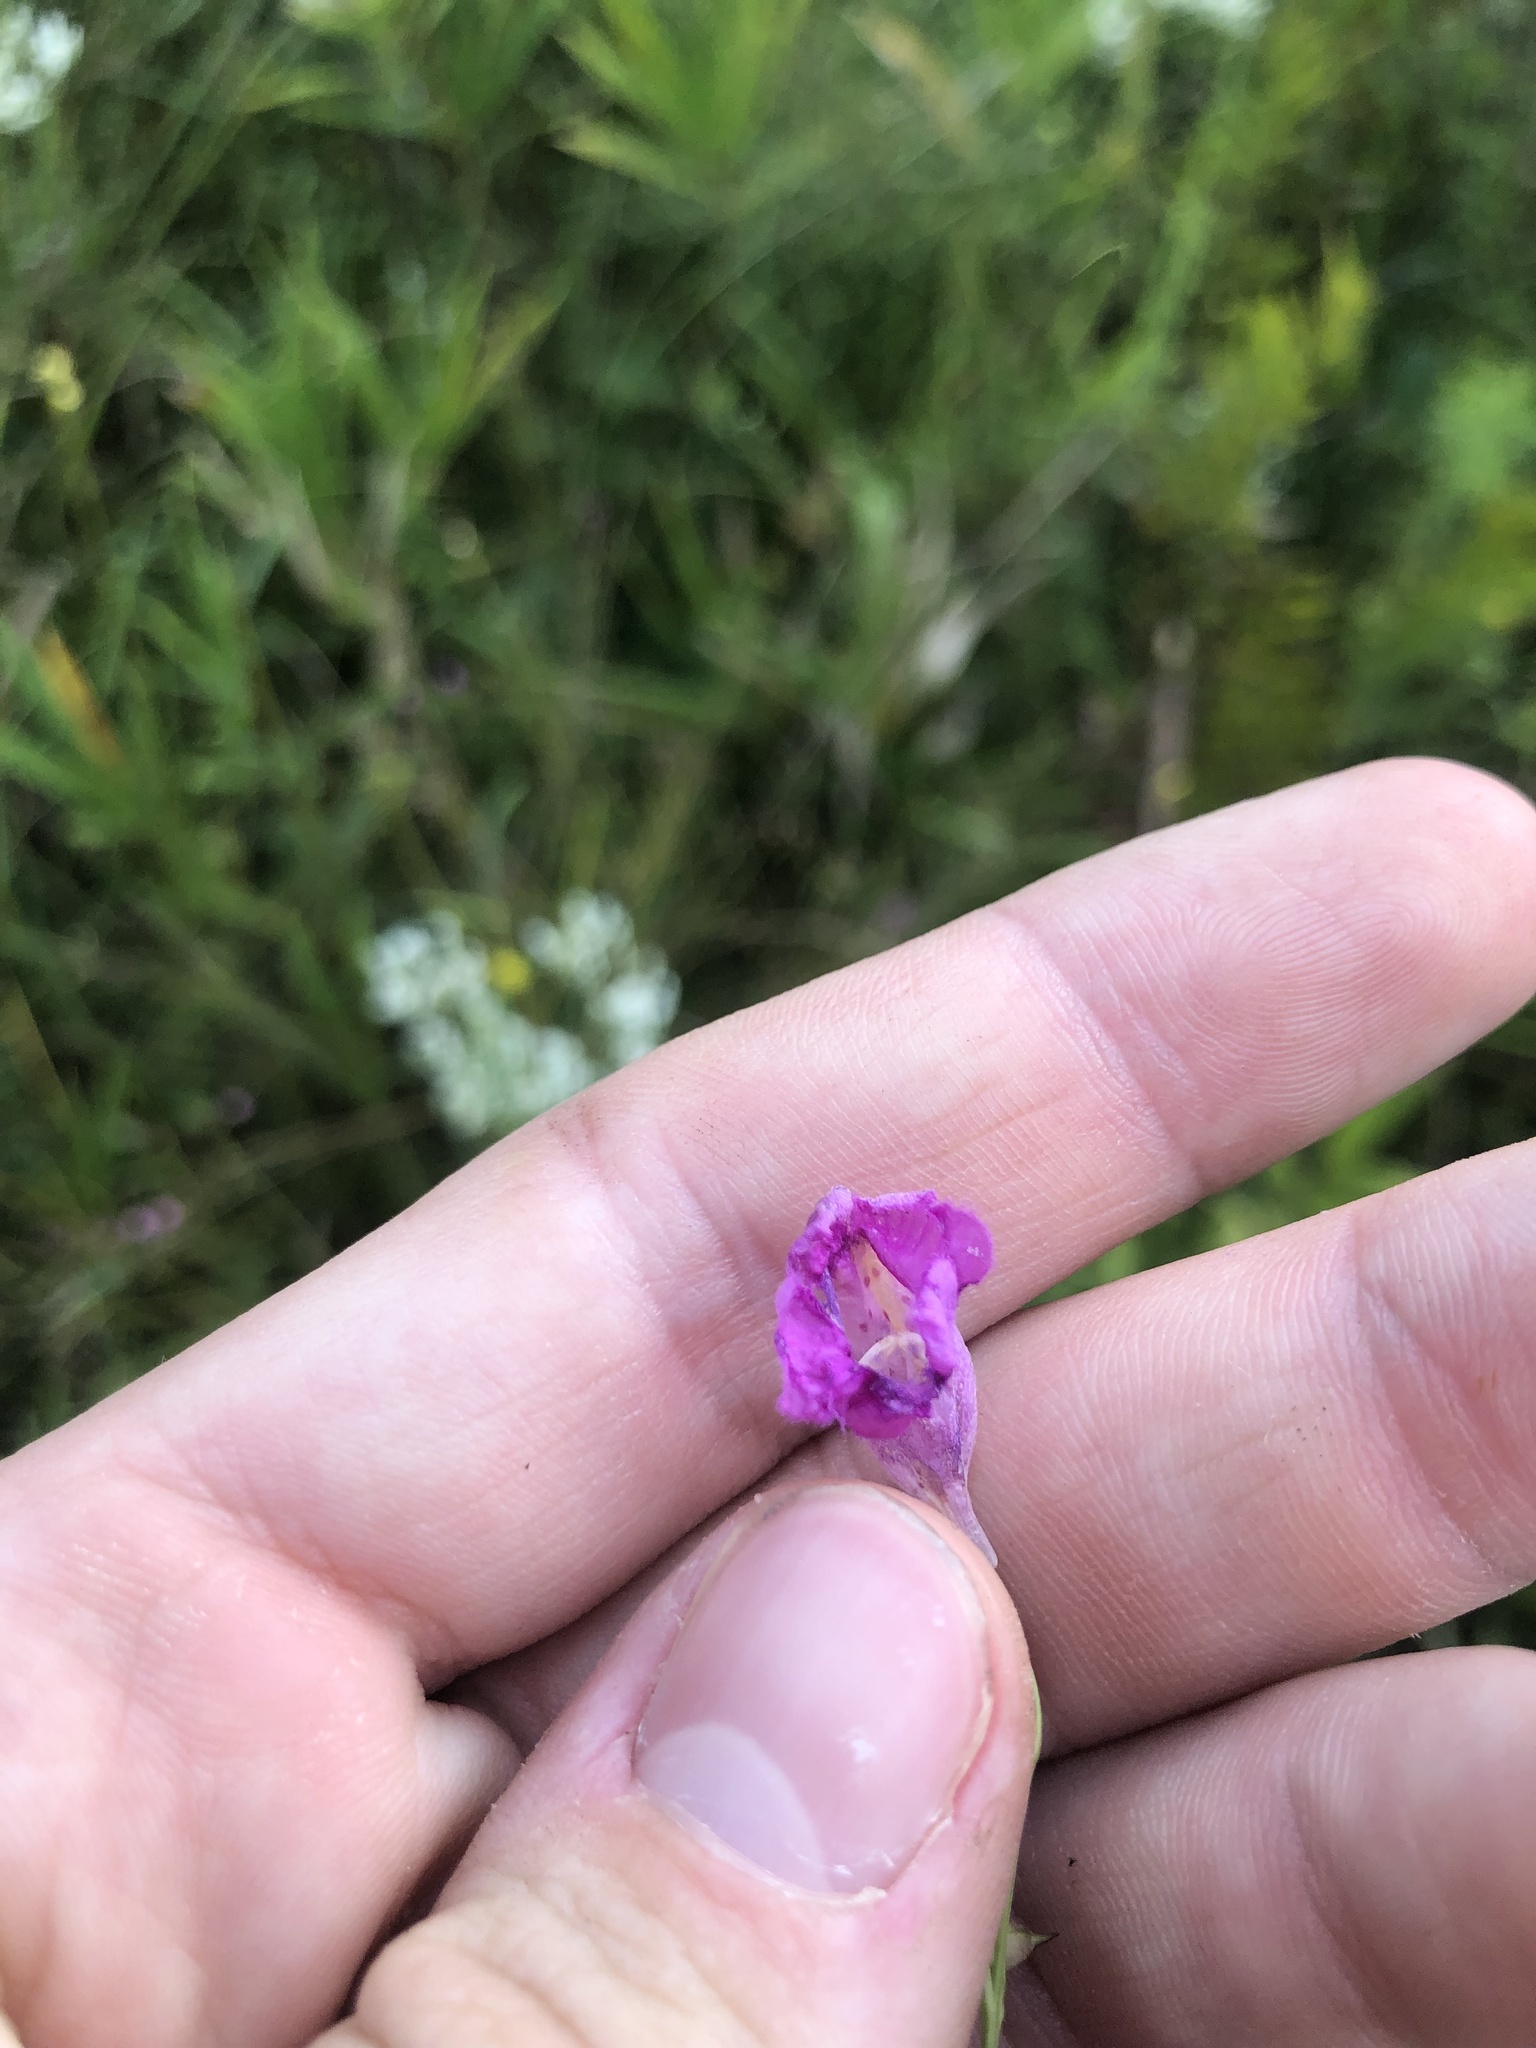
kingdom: Plantae
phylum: Tracheophyta
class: Magnoliopsida
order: Lamiales
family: Orobanchaceae
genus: Agalinis
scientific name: Agalinis obtusifolia
